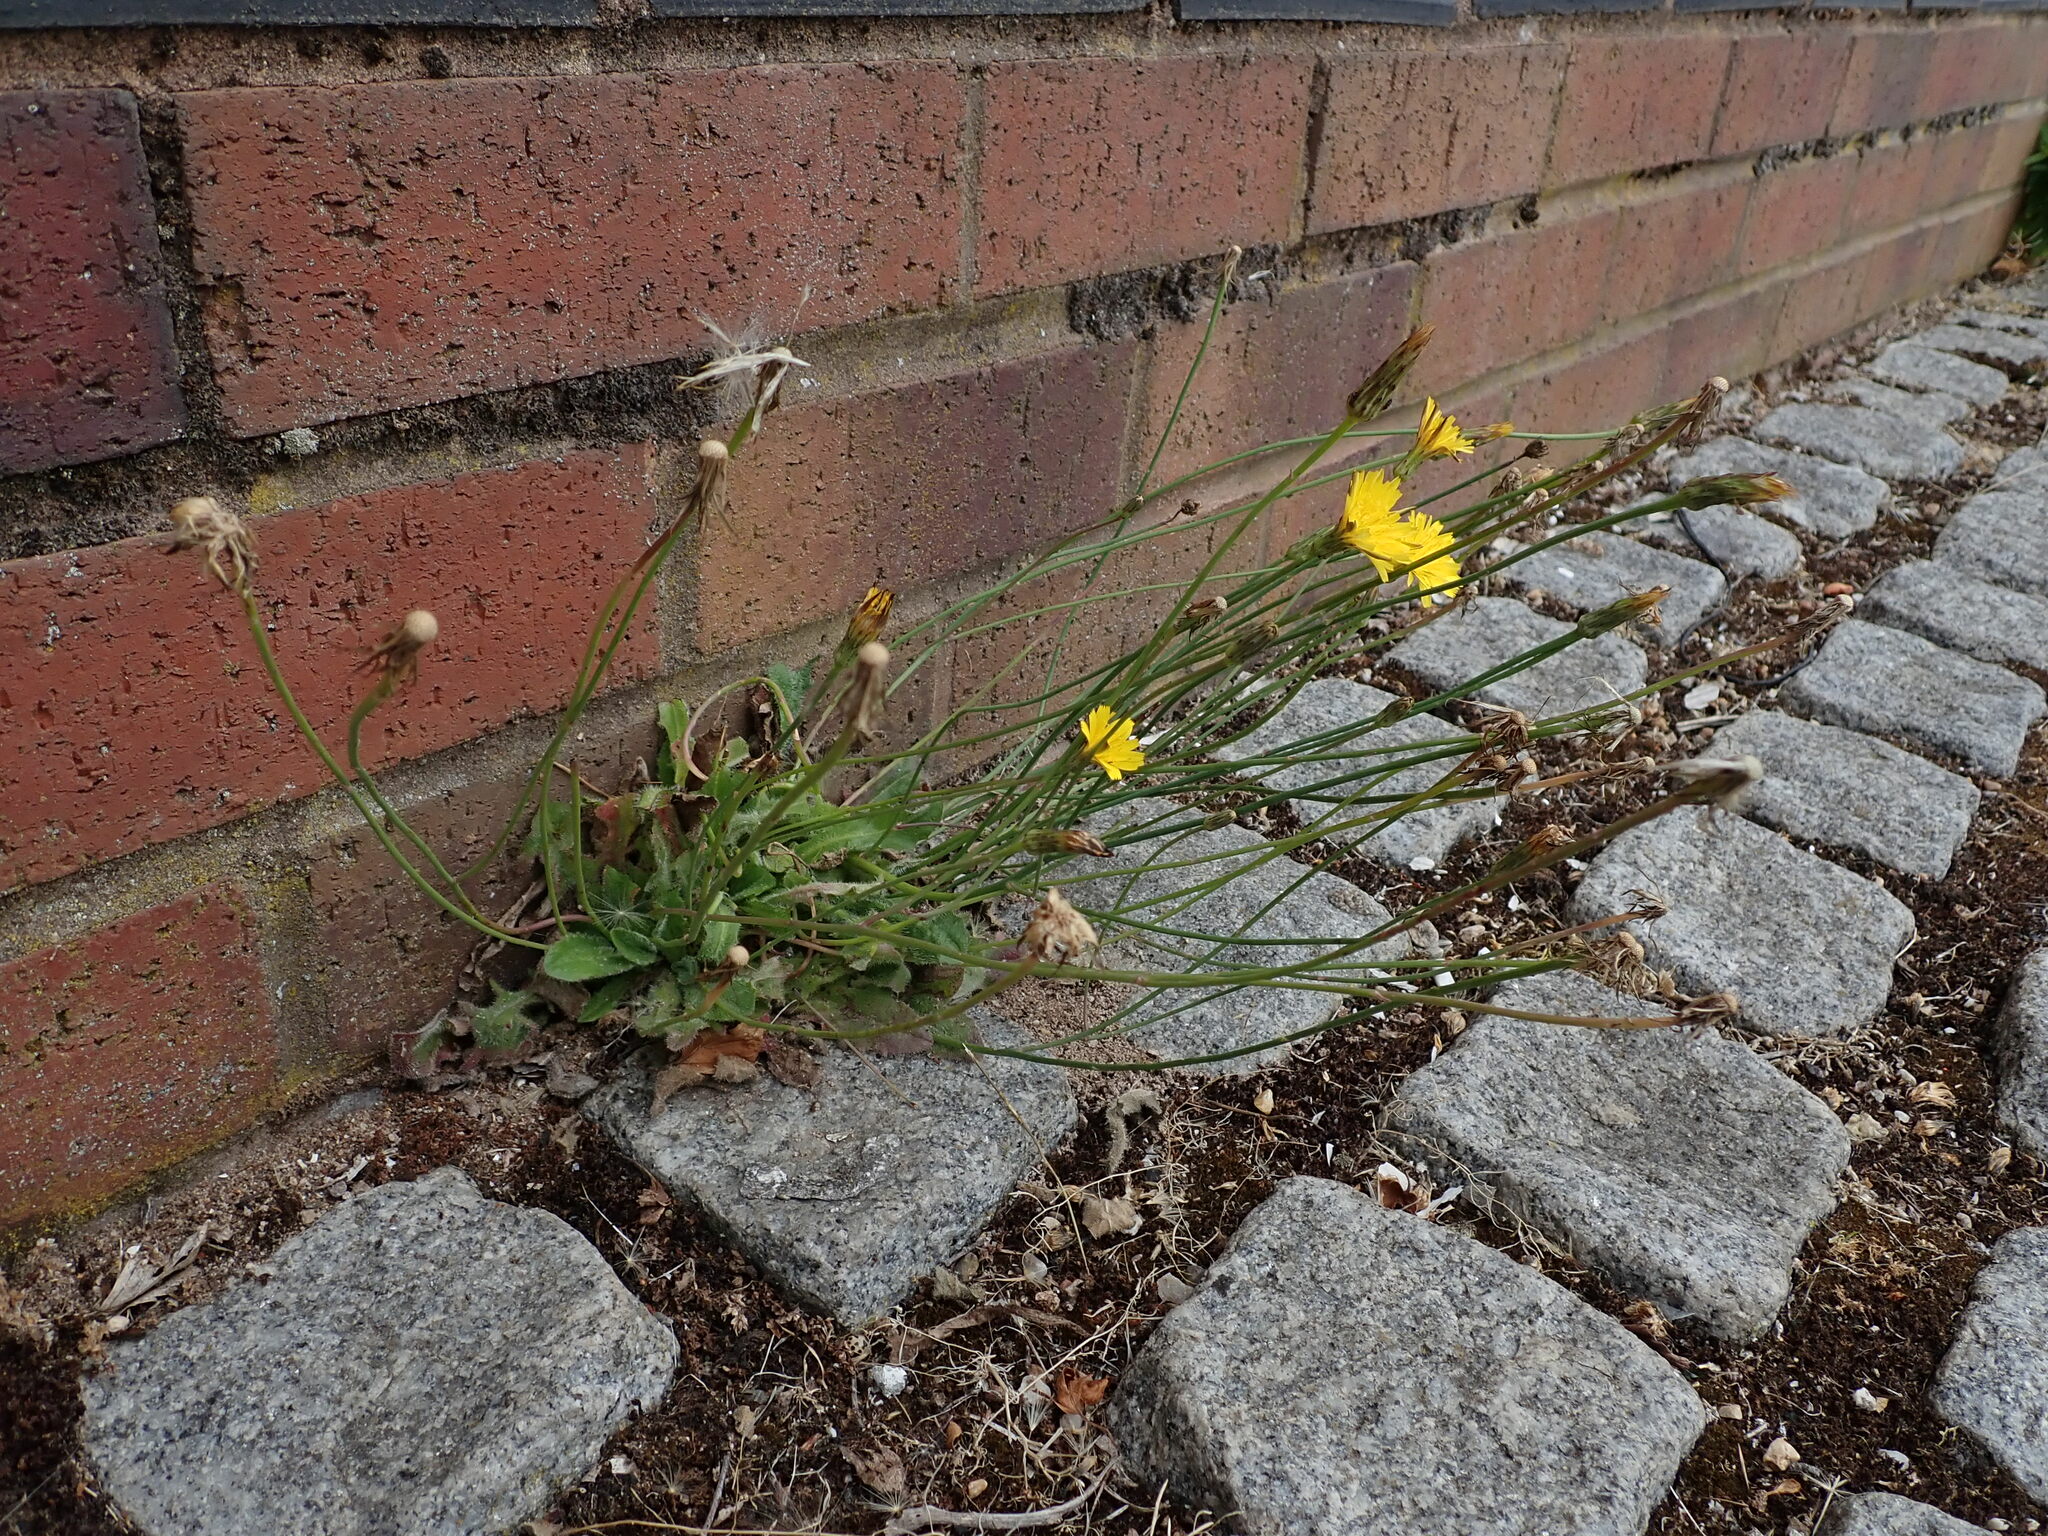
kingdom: Plantae
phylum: Tracheophyta
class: Magnoliopsida
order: Asterales
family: Asteraceae
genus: Hypochaeris
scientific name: Hypochaeris radicata
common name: Flatweed
